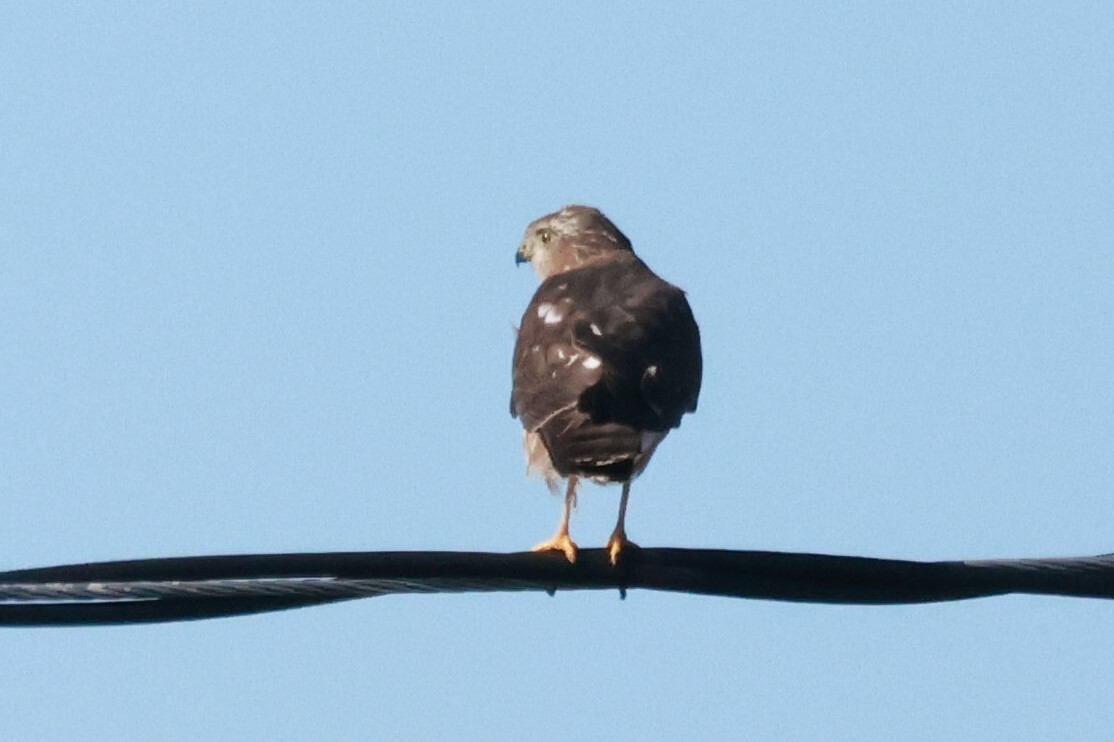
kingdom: Animalia
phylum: Chordata
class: Aves
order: Accipitriformes
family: Accipitridae
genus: Accipiter
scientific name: Accipiter striatus
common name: Sharp-shinned hawk
